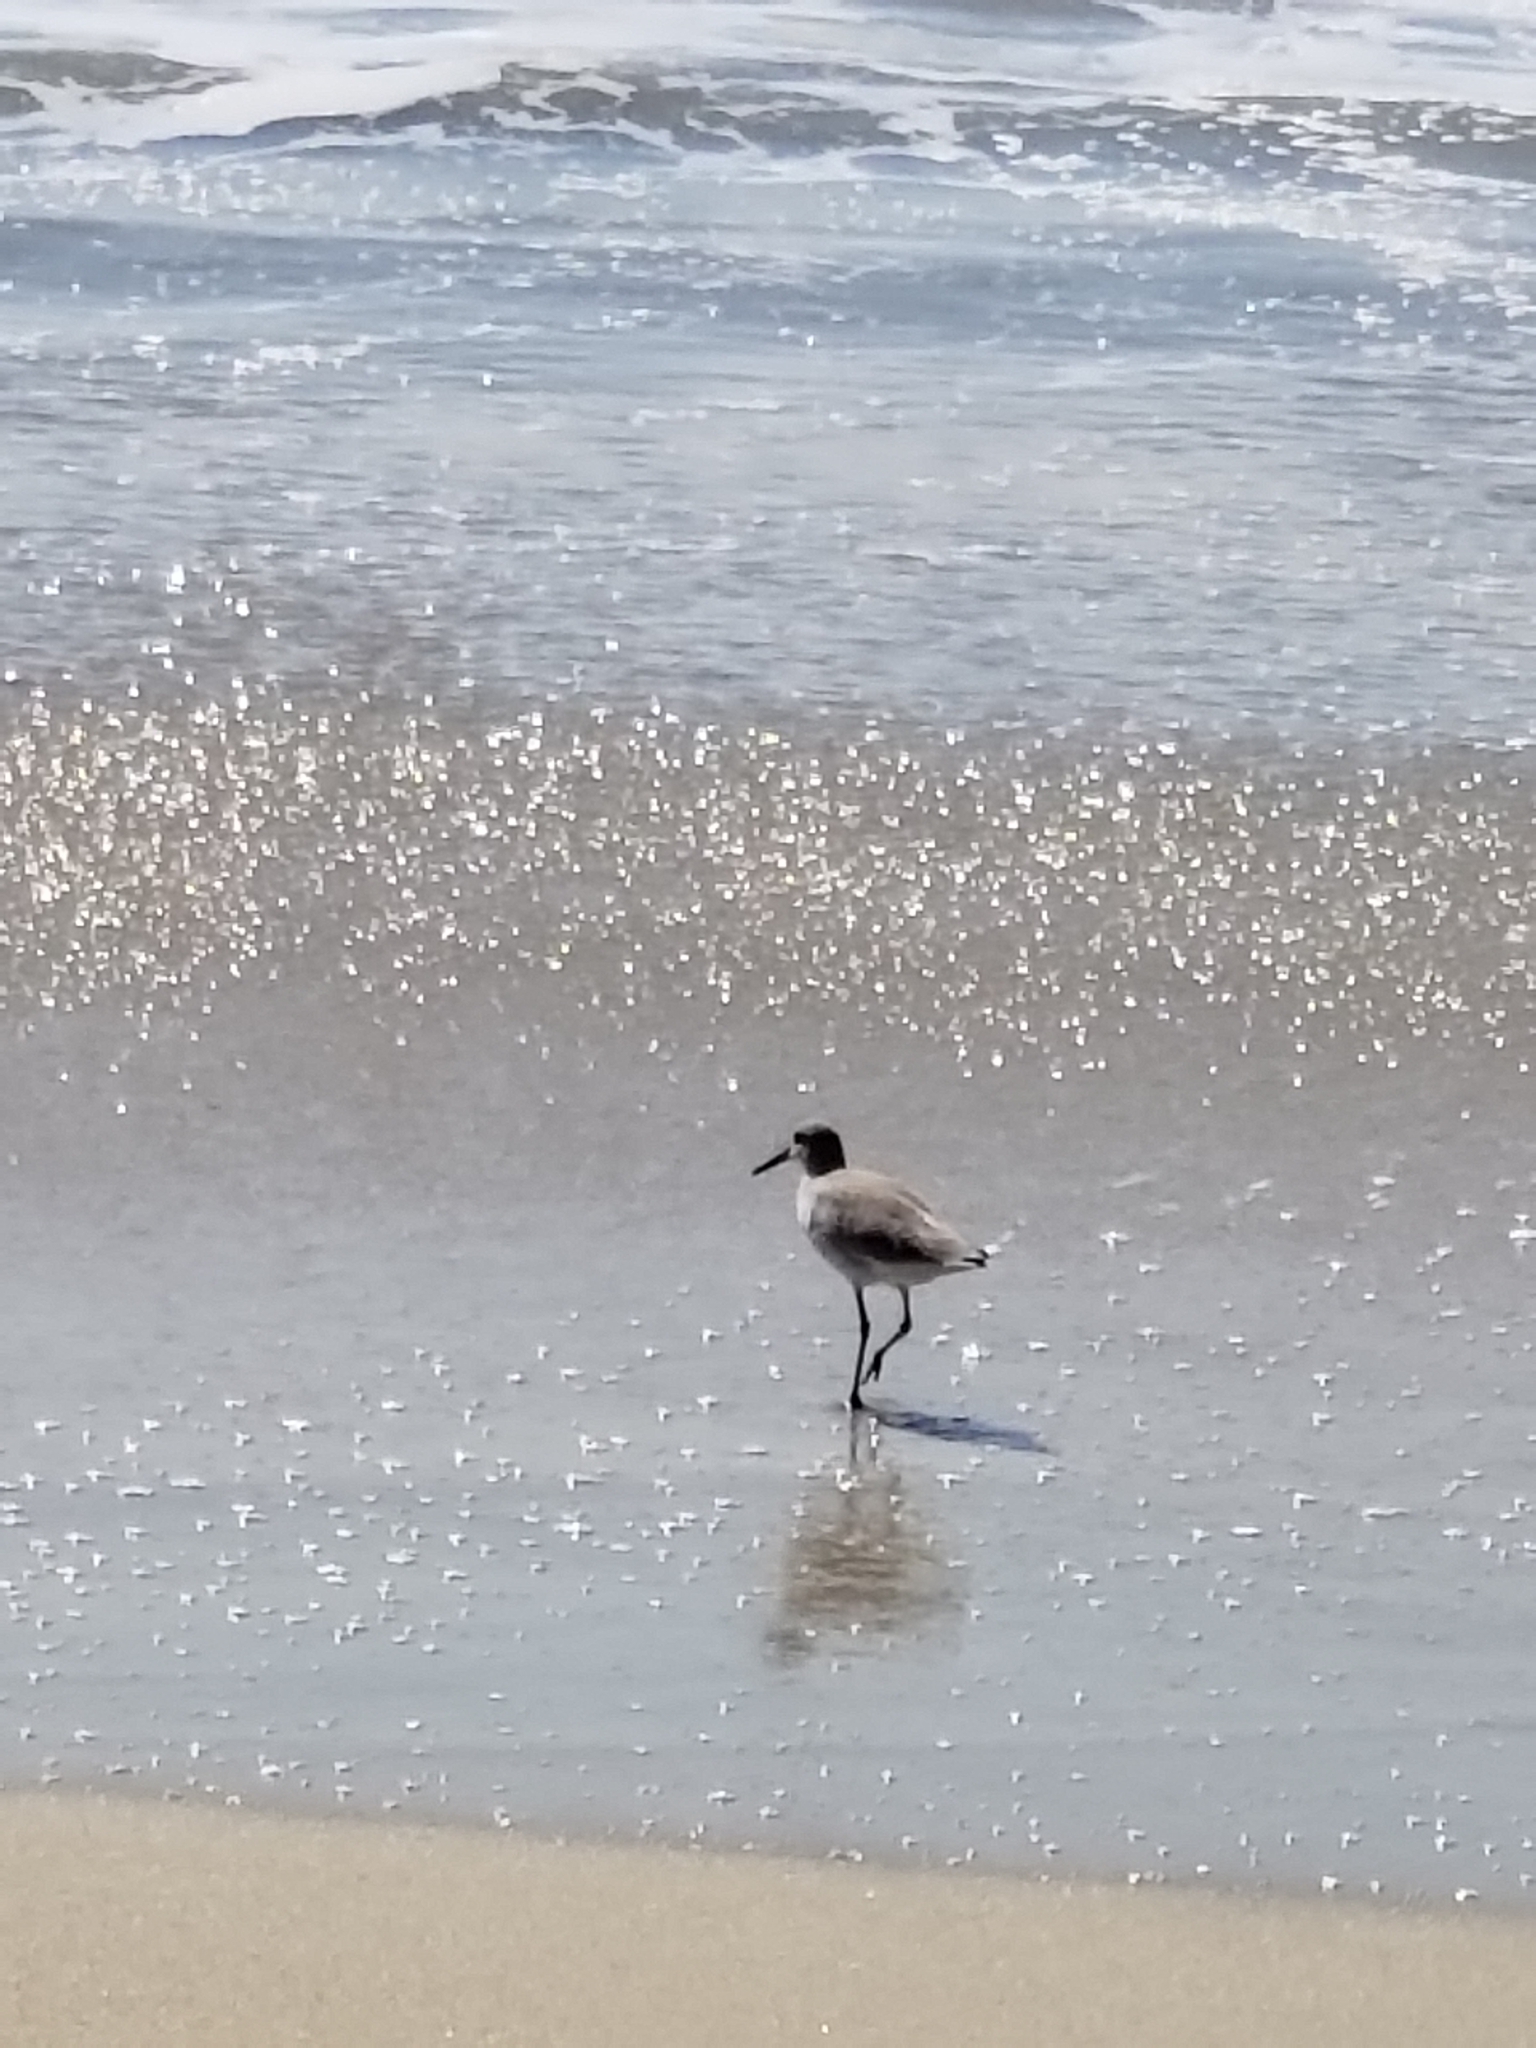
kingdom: Animalia
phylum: Chordata
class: Aves
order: Charadriiformes
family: Scolopacidae
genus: Tringa
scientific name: Tringa semipalmata
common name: Willet
